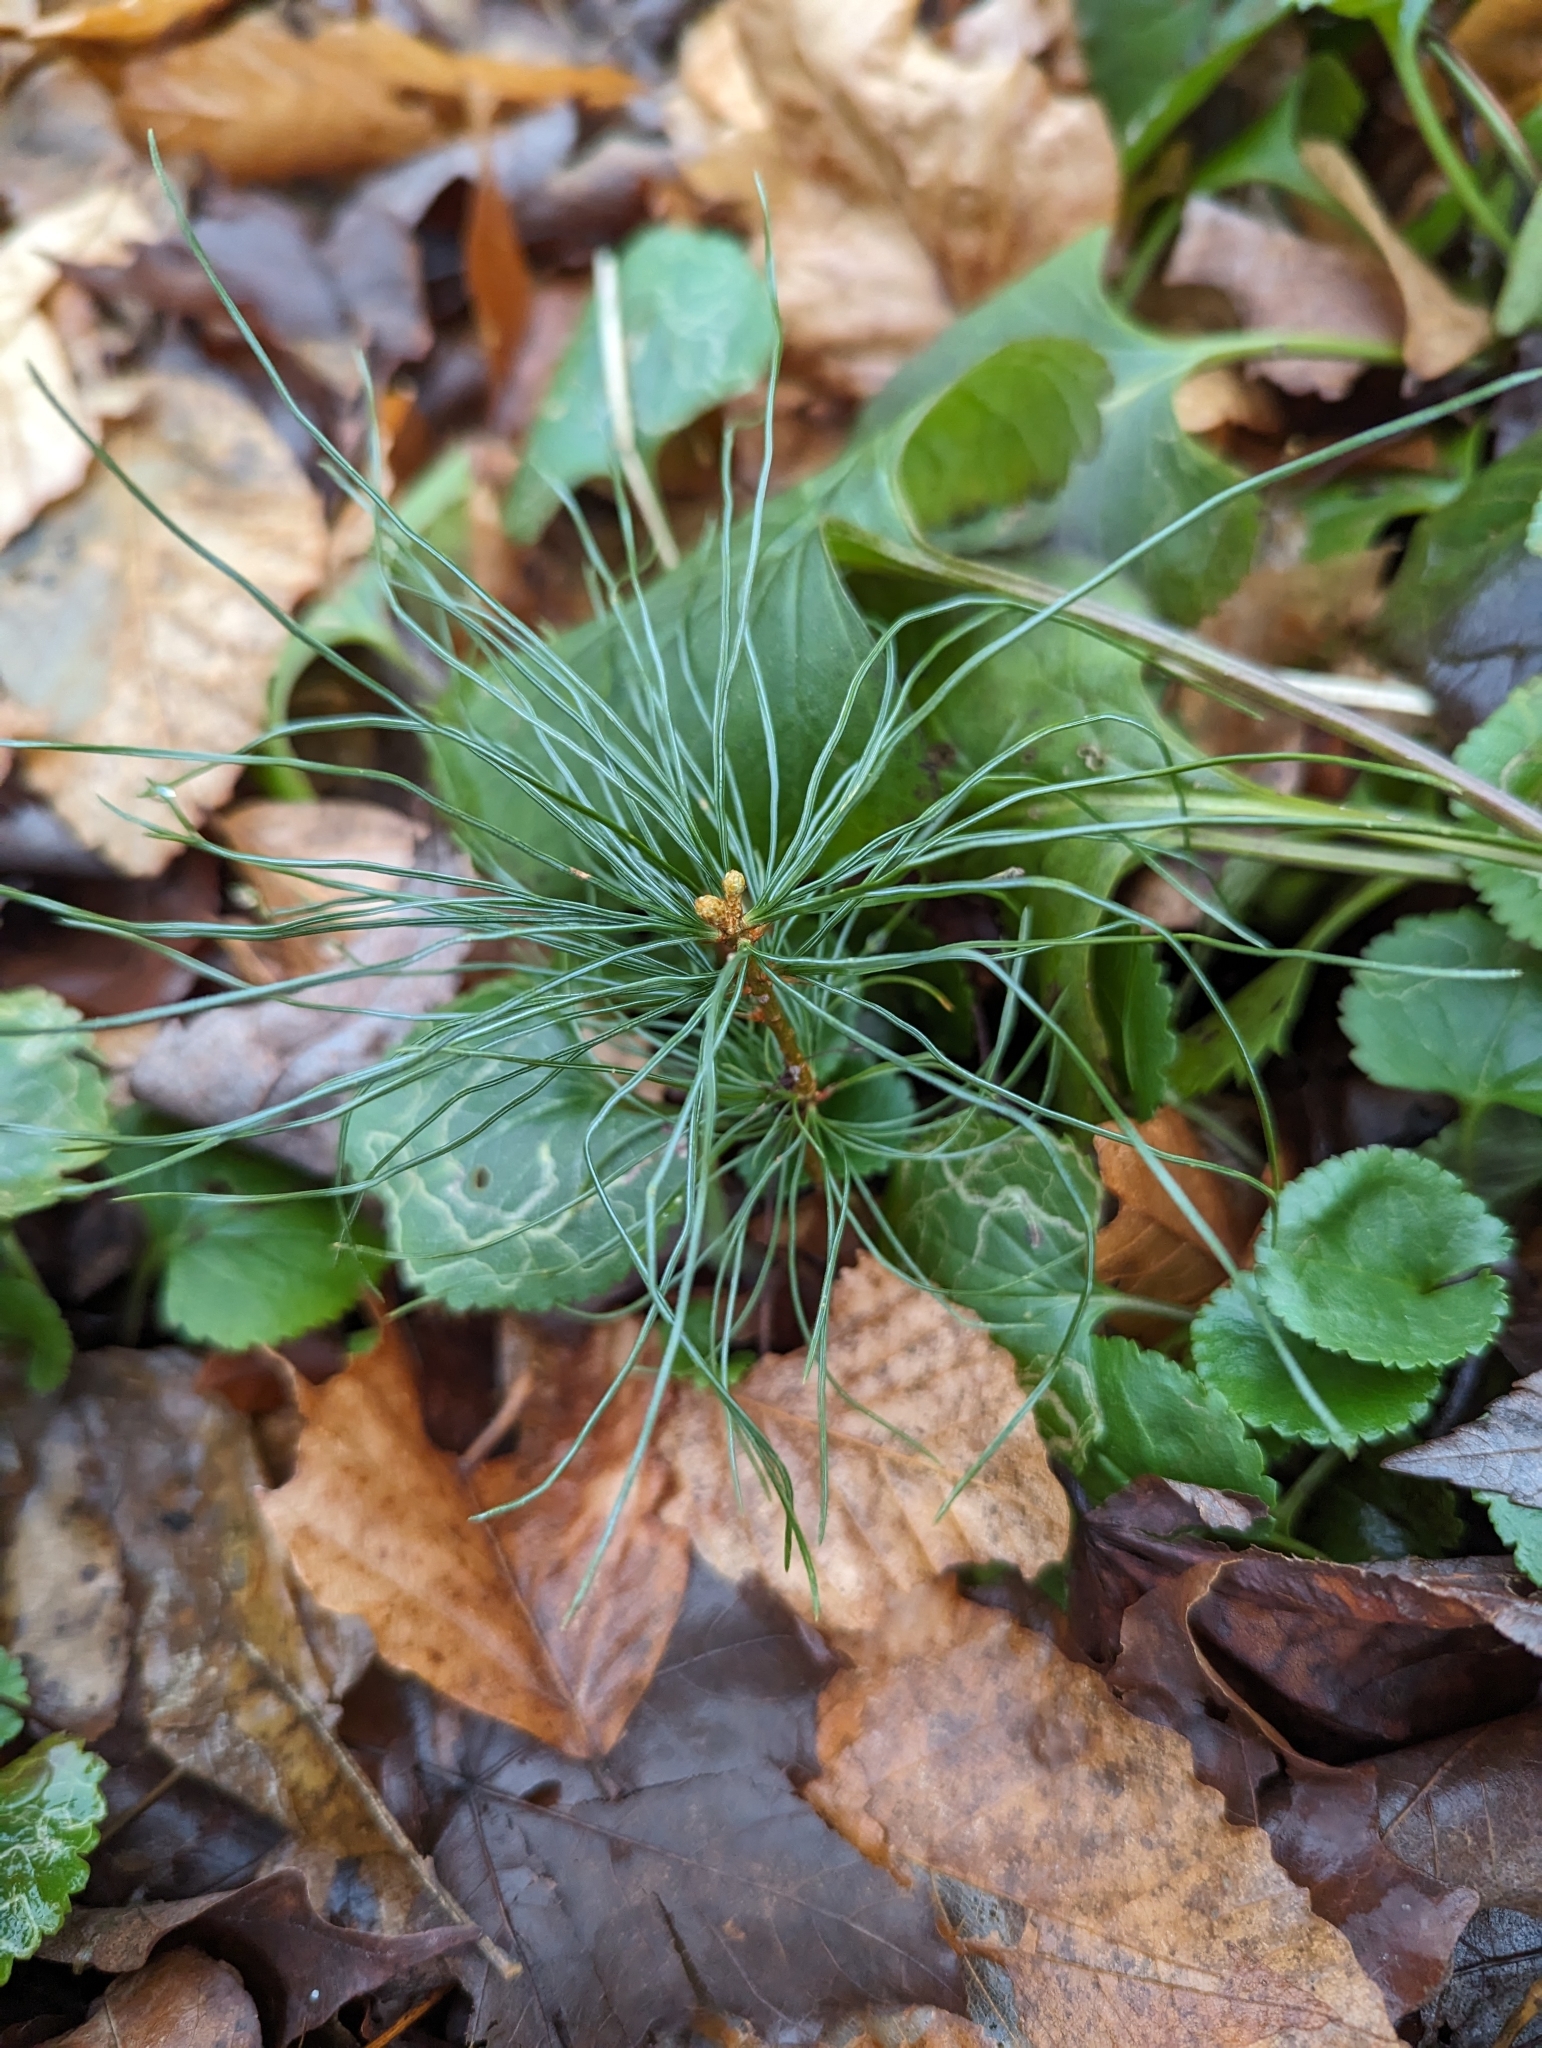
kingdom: Plantae
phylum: Tracheophyta
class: Pinopsida
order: Pinales
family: Pinaceae
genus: Pinus
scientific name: Pinus strobus
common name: Weymouth pine
